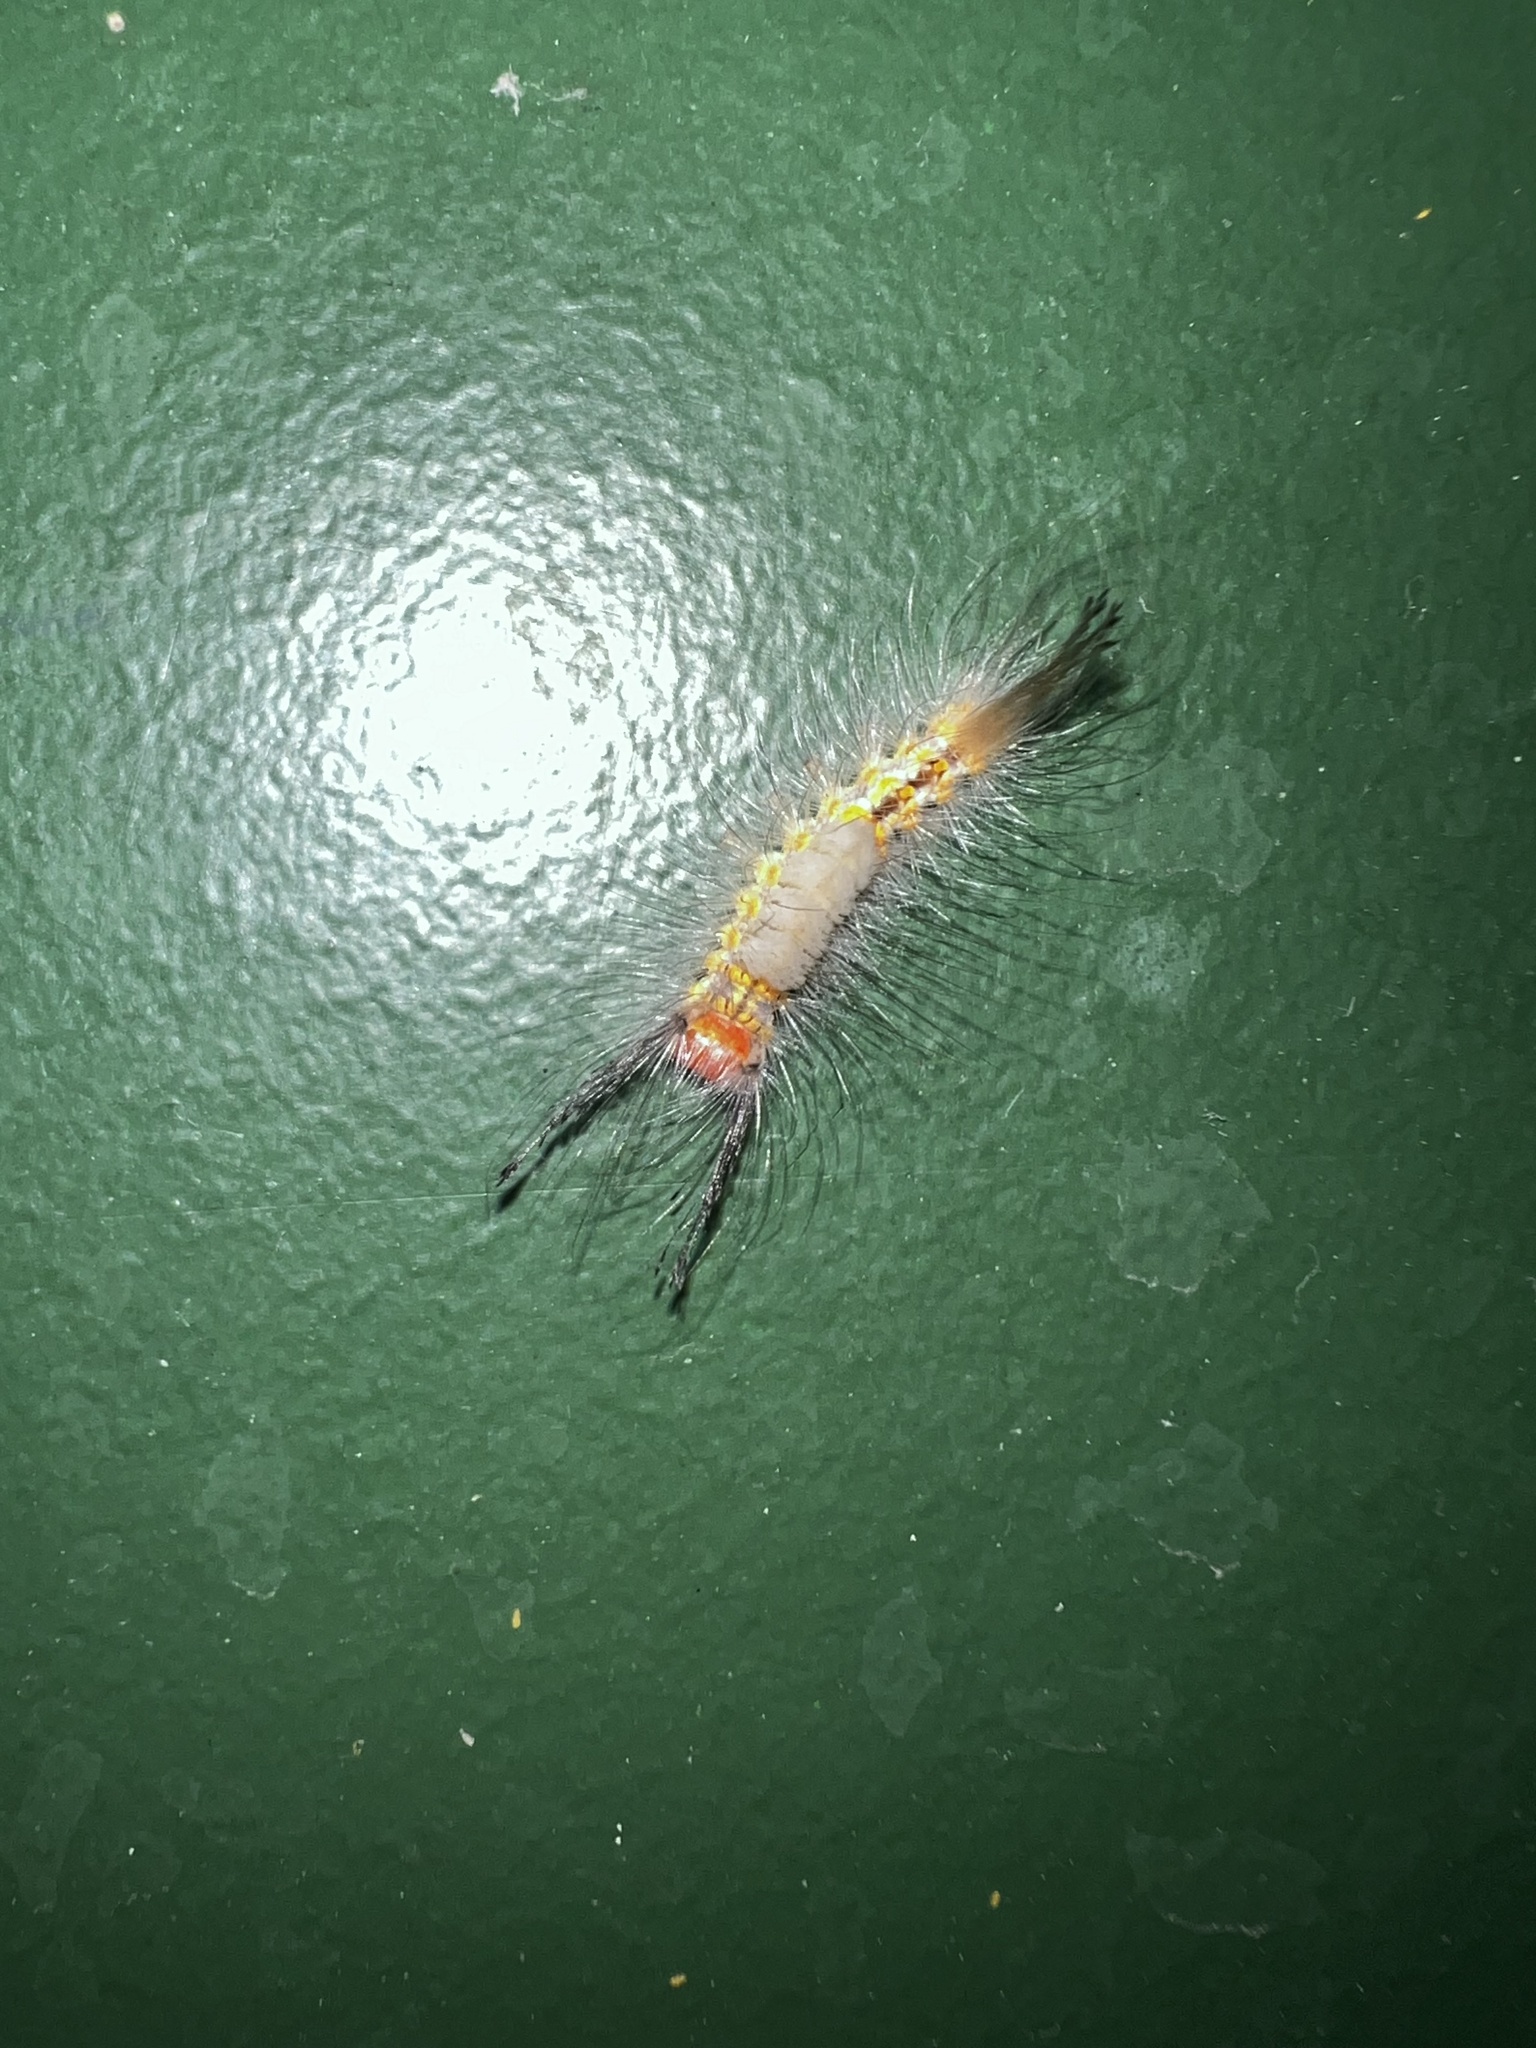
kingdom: Animalia
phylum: Arthropoda
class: Insecta
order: Lepidoptera
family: Erebidae
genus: Orgyia
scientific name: Orgyia detrita
